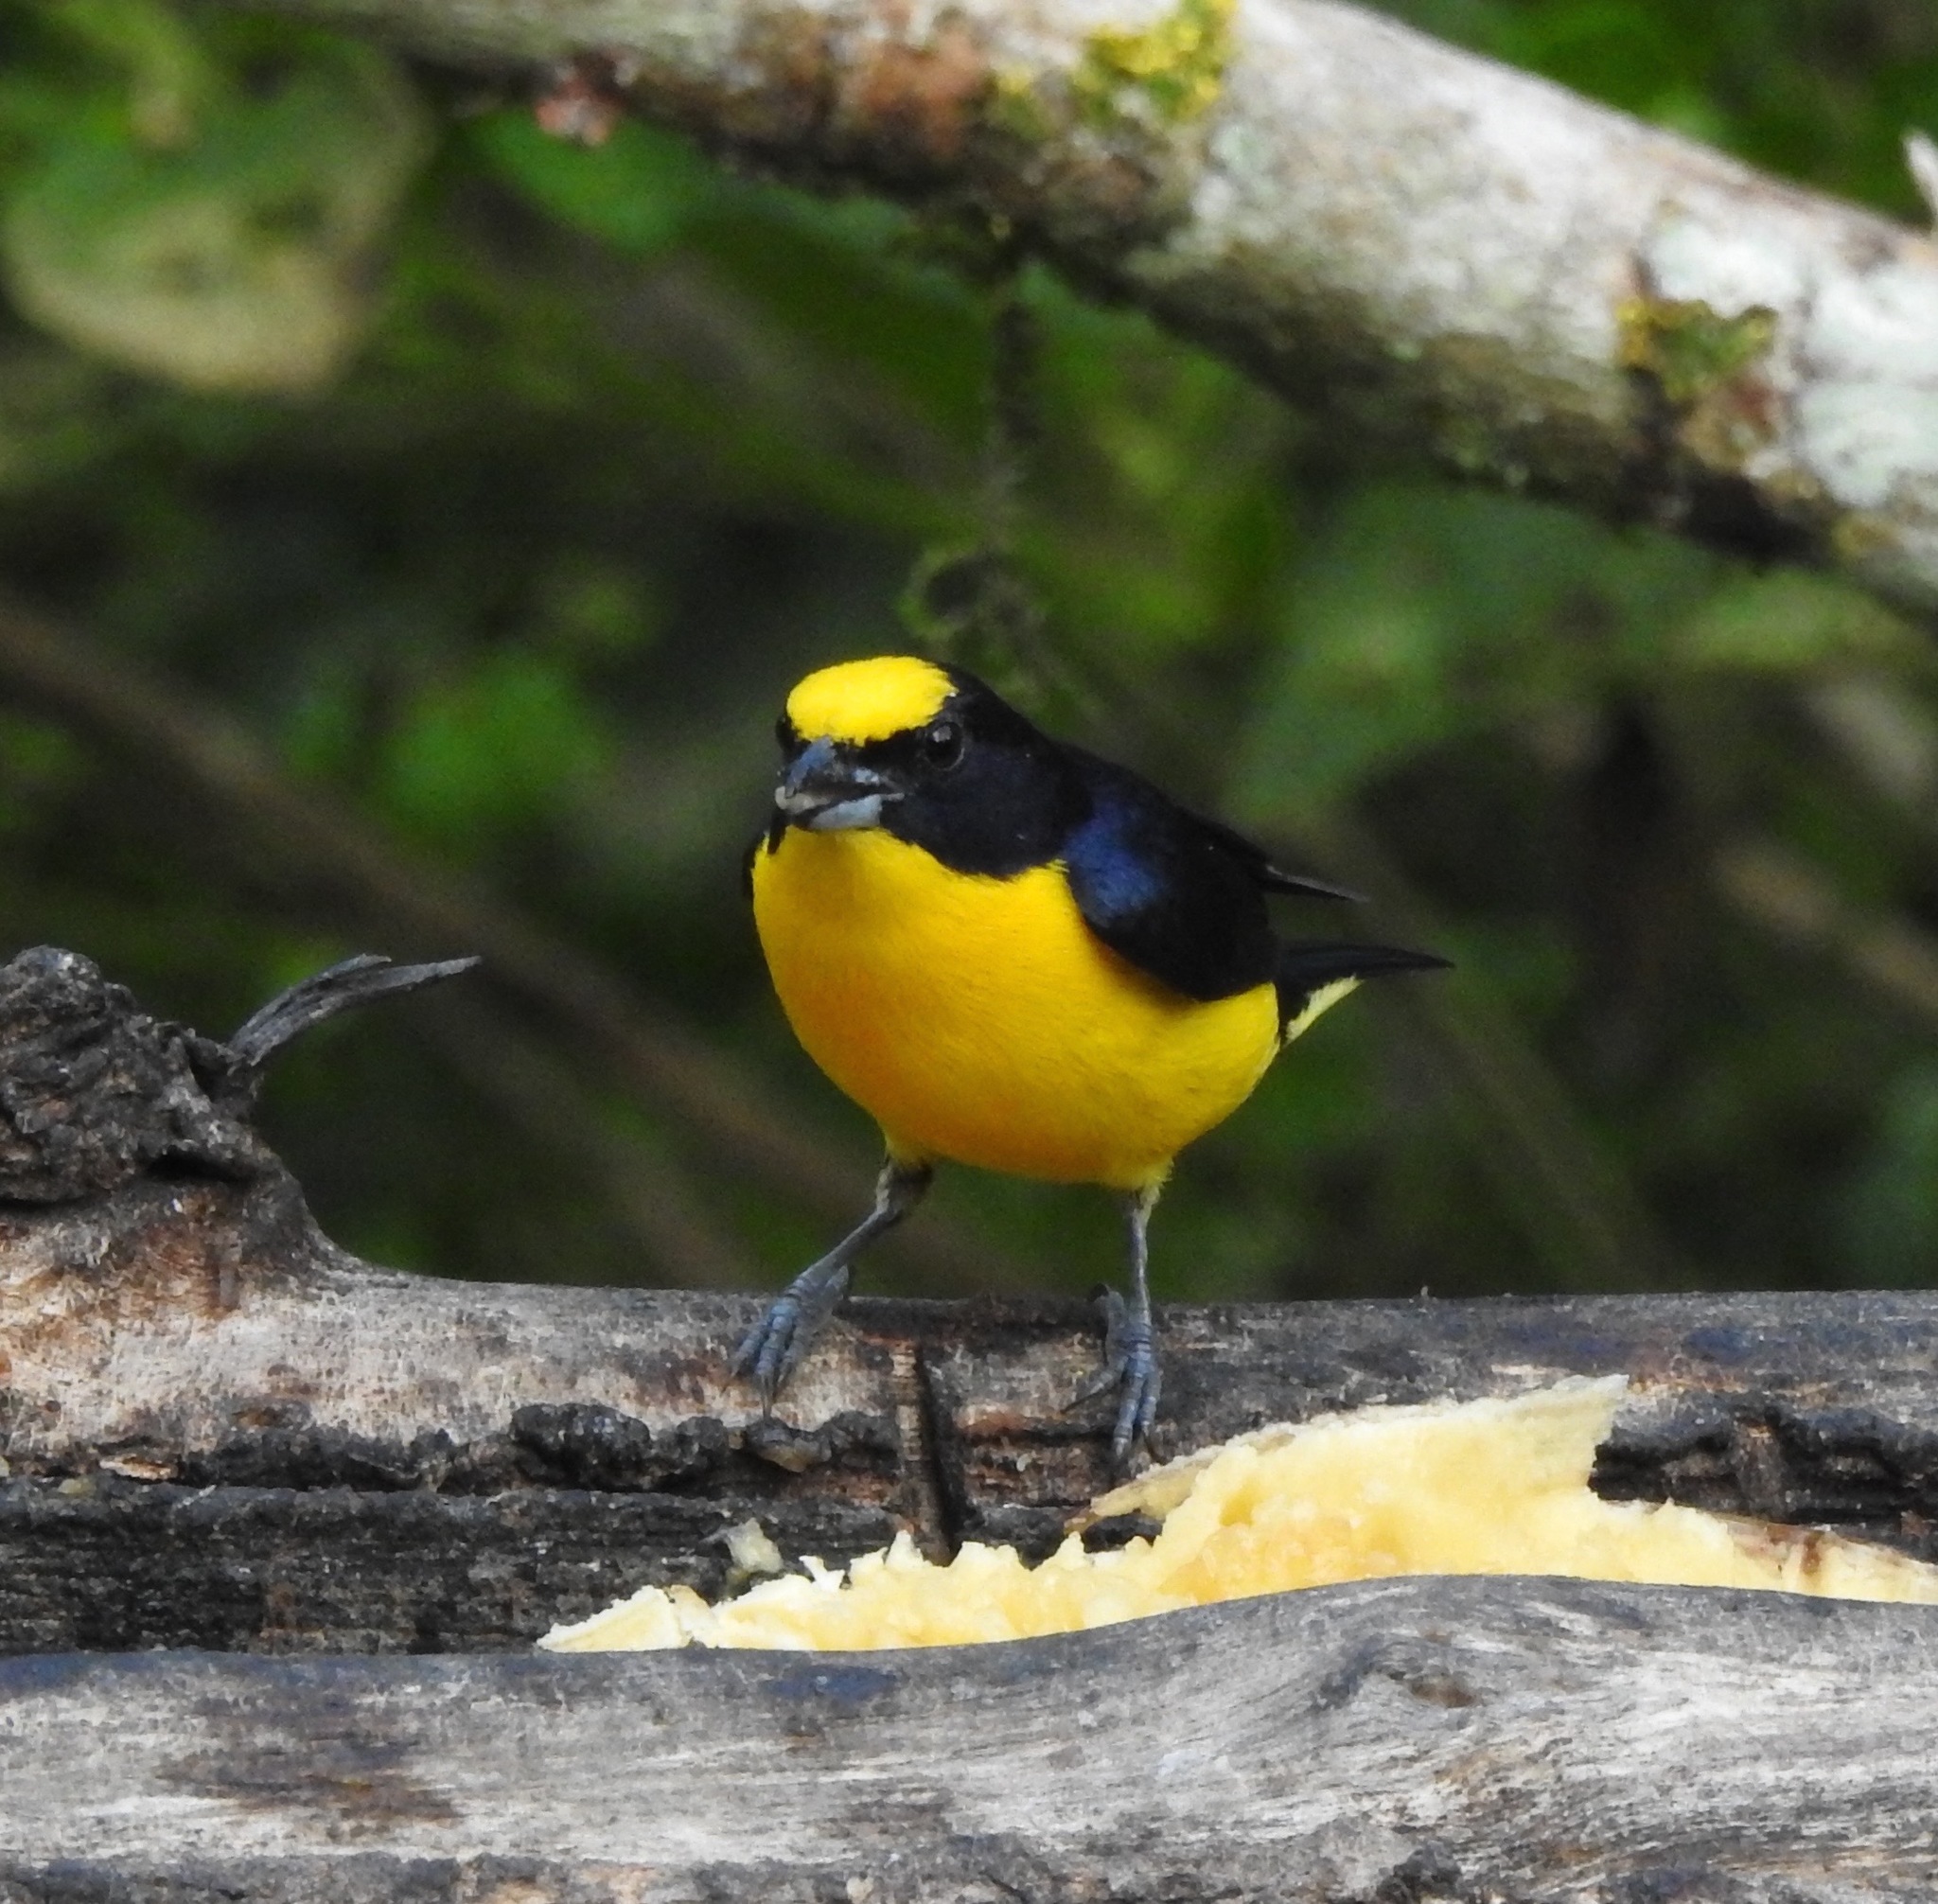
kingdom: Animalia
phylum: Chordata
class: Aves
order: Passeriformes
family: Fringillidae
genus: Euphonia
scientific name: Euphonia laniirostris
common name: Thick-billed euphonia
